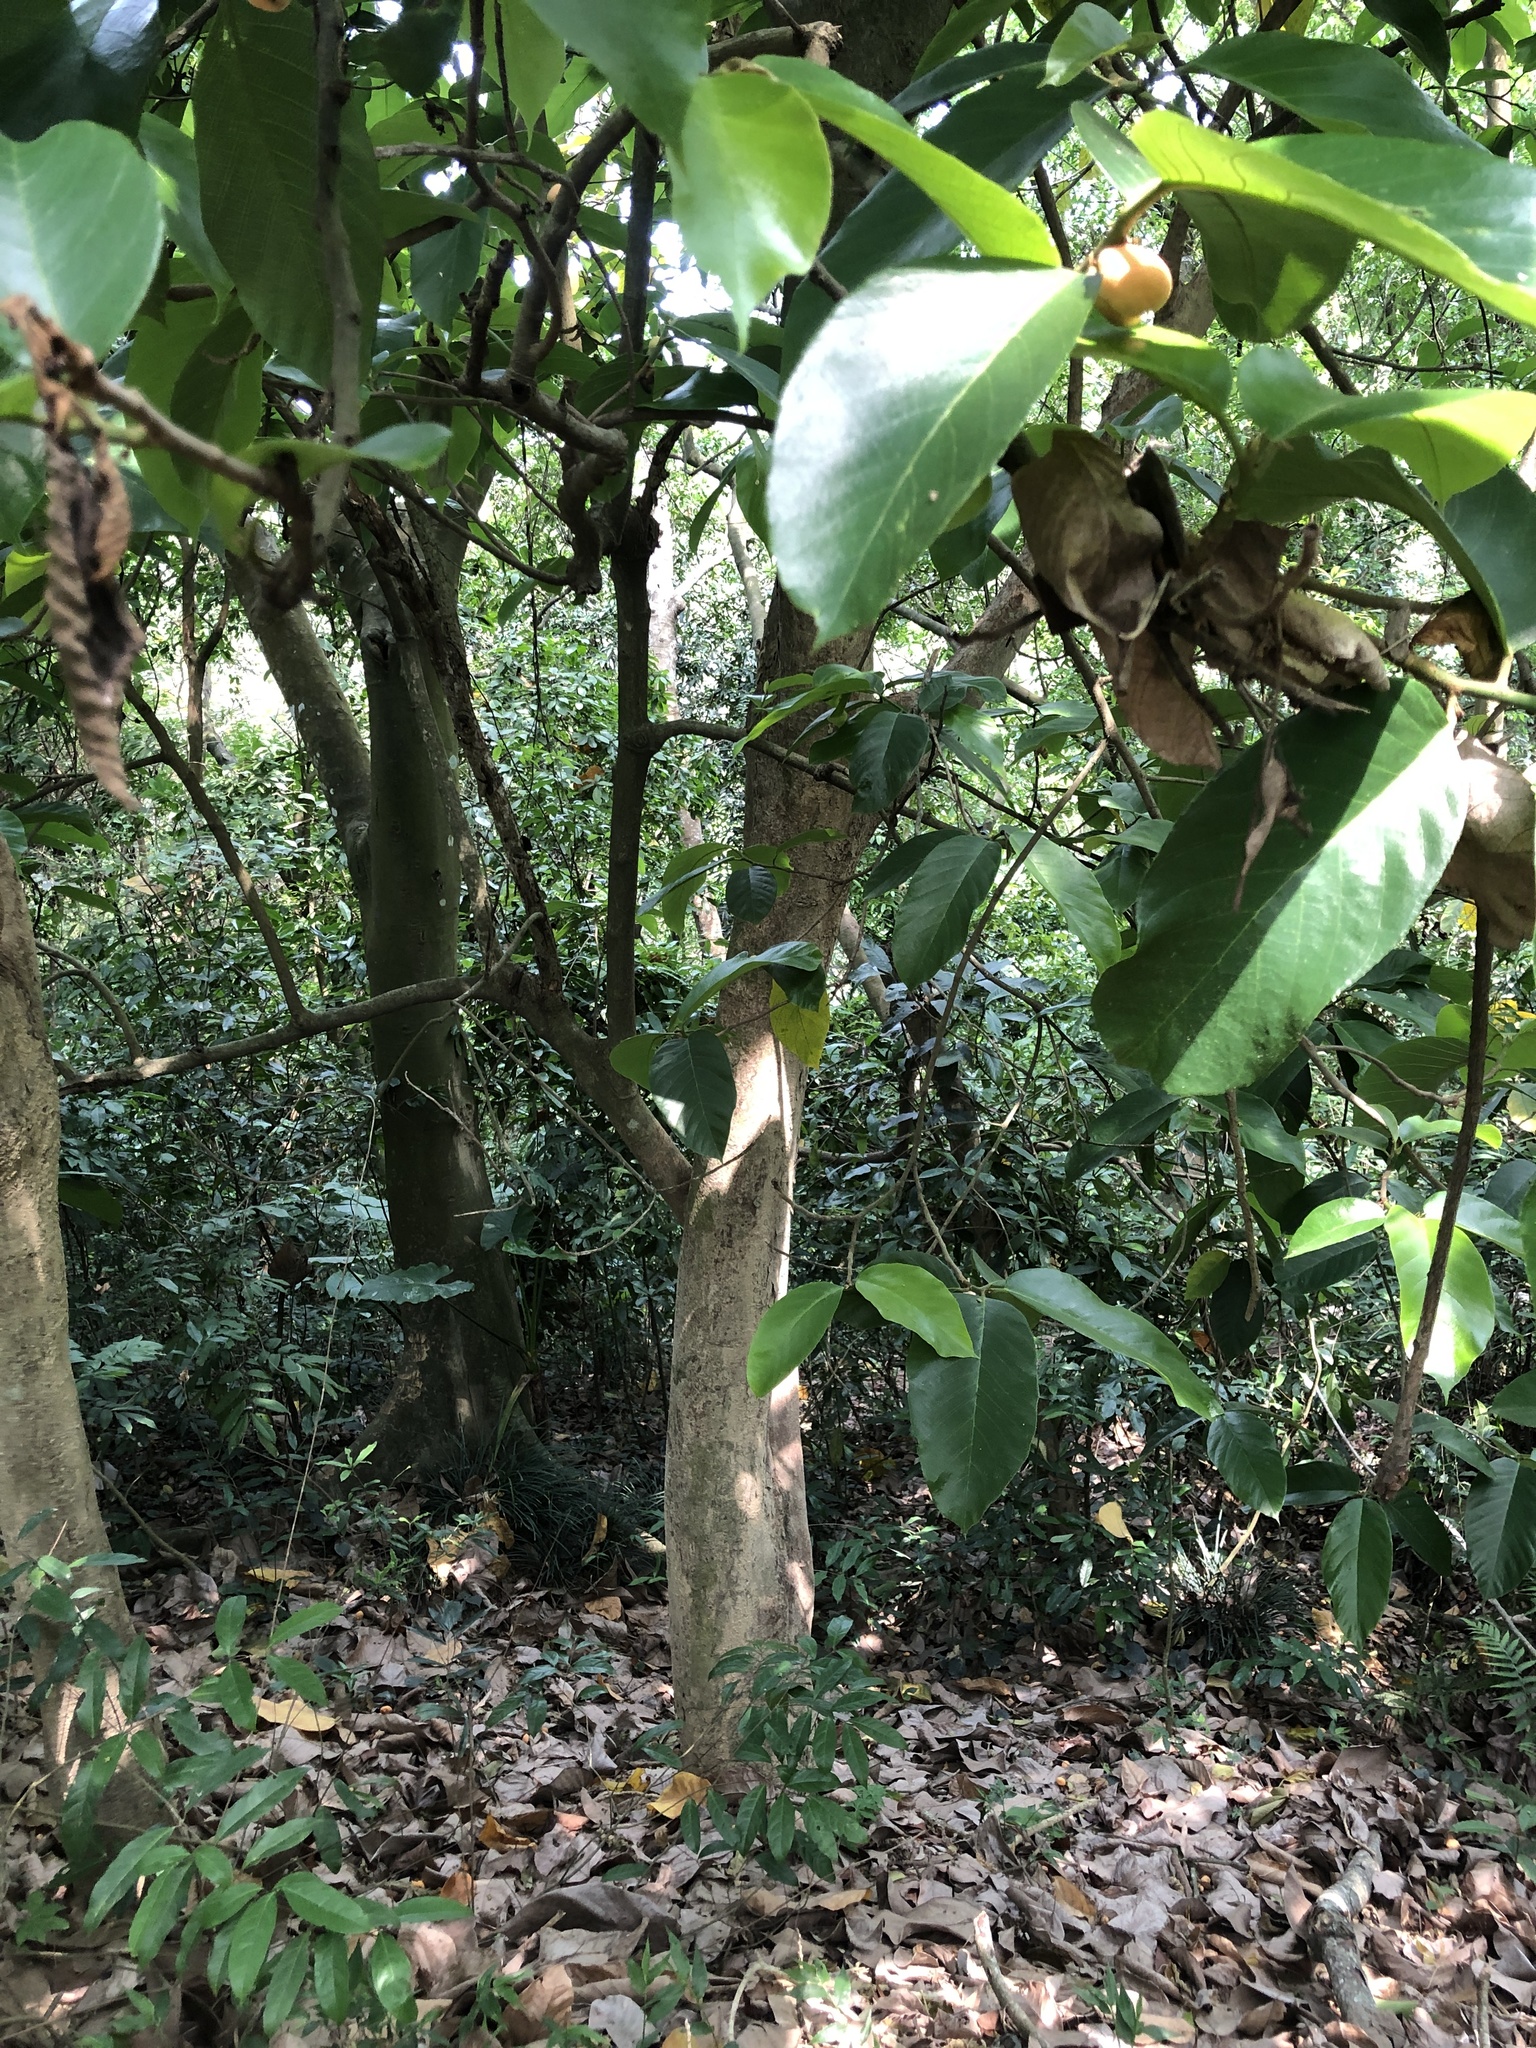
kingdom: Plantae
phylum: Tracheophyta
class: Magnoliopsida
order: Rosales
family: Moraceae
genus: Artocarpus
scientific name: Artocarpus lacucha
